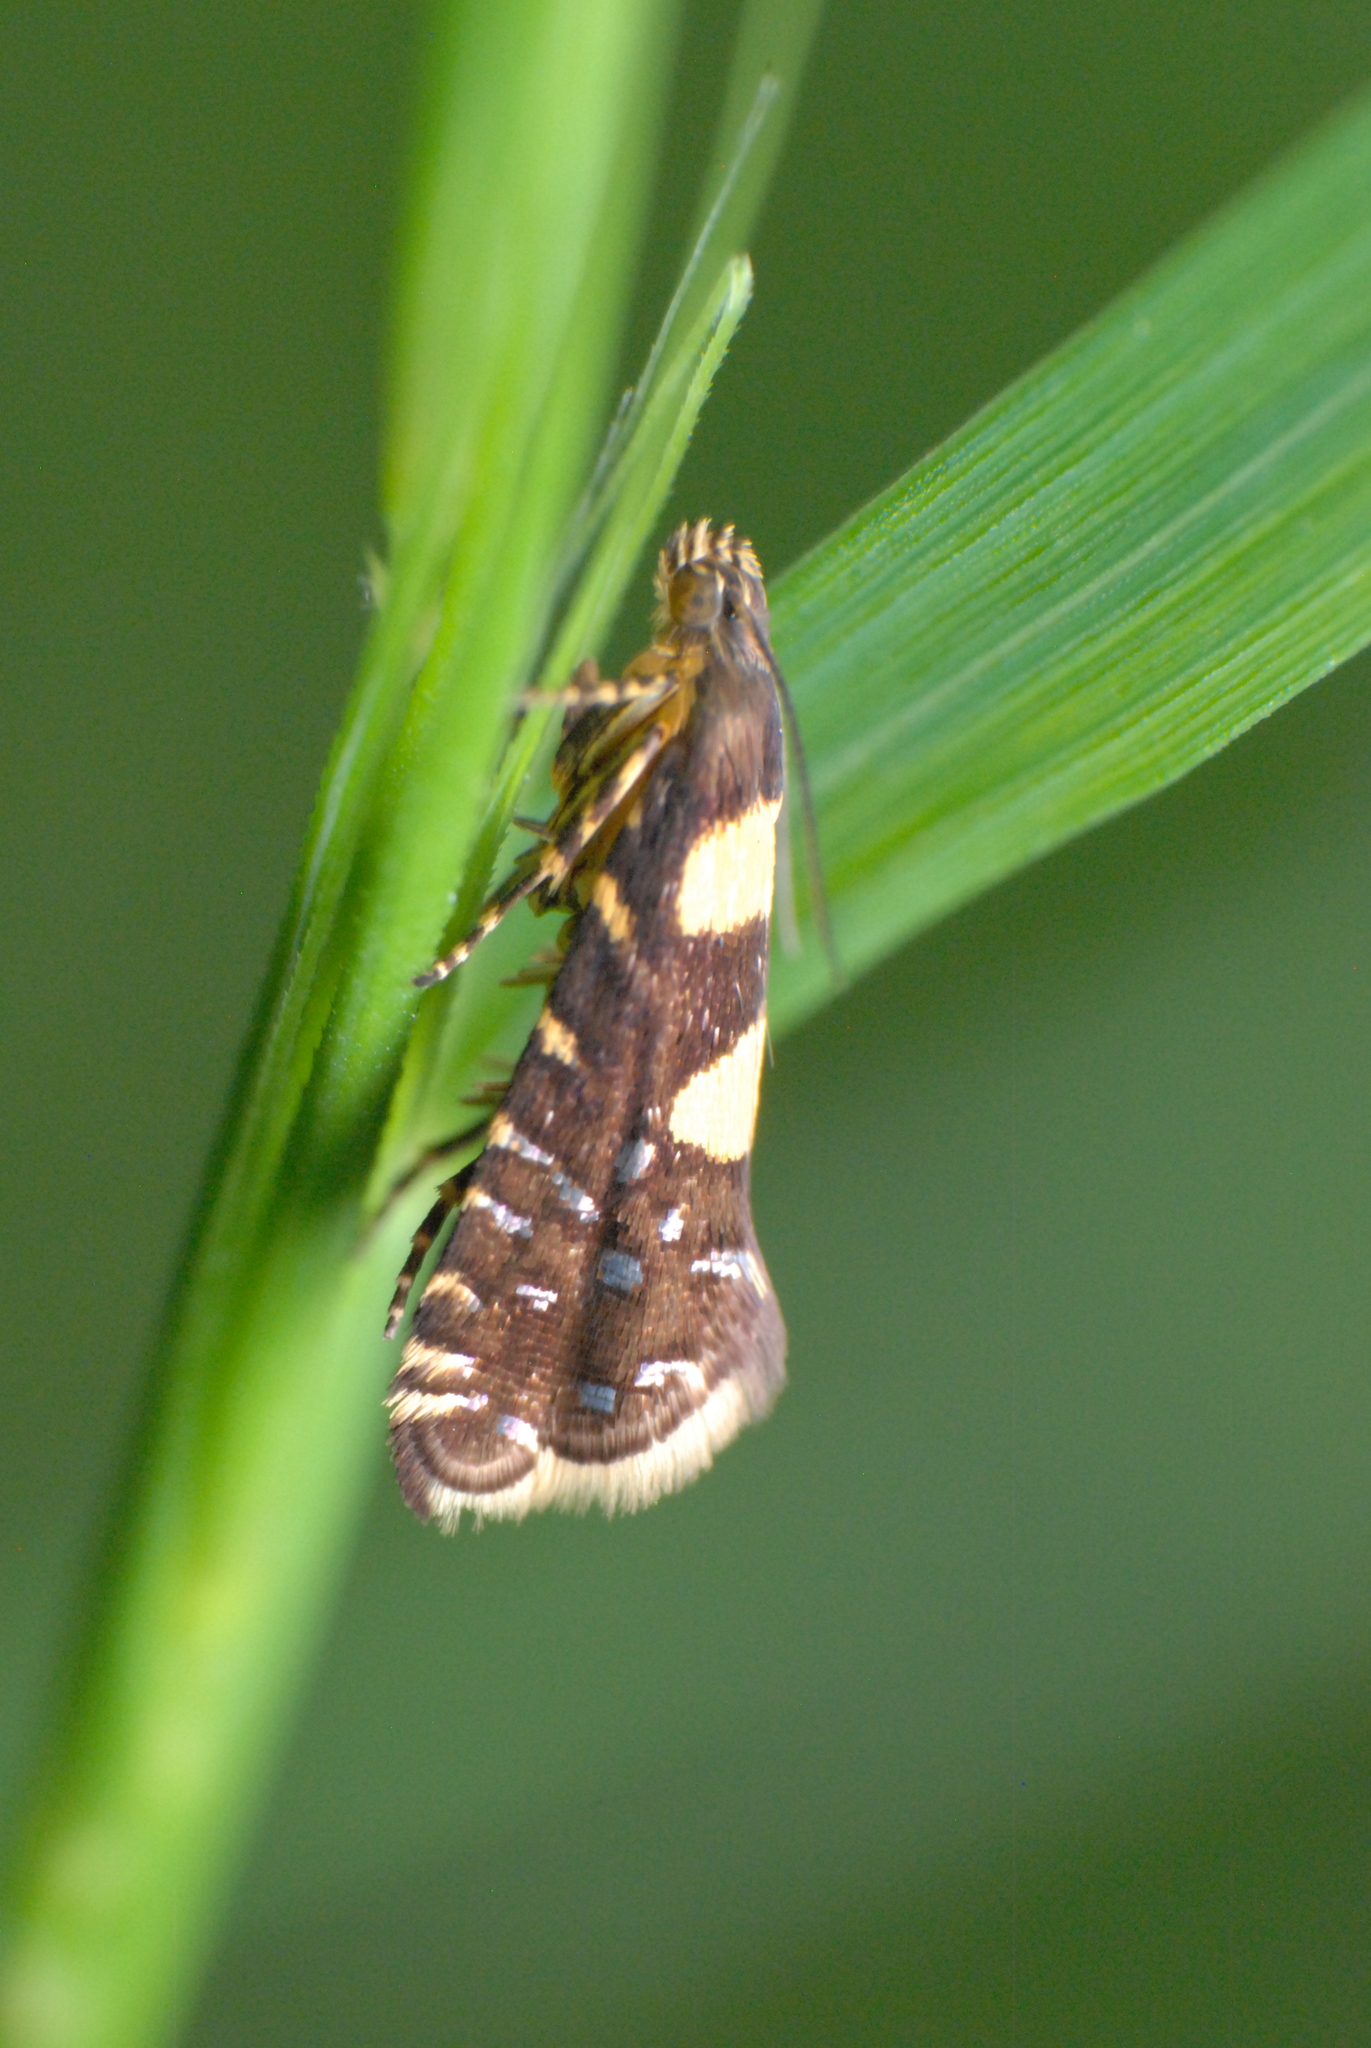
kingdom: Animalia
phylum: Arthropoda
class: Insecta
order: Lepidoptera
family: Glyphipterigidae
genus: Glyphipterix
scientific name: Glyphipterix chrysoplanetis
